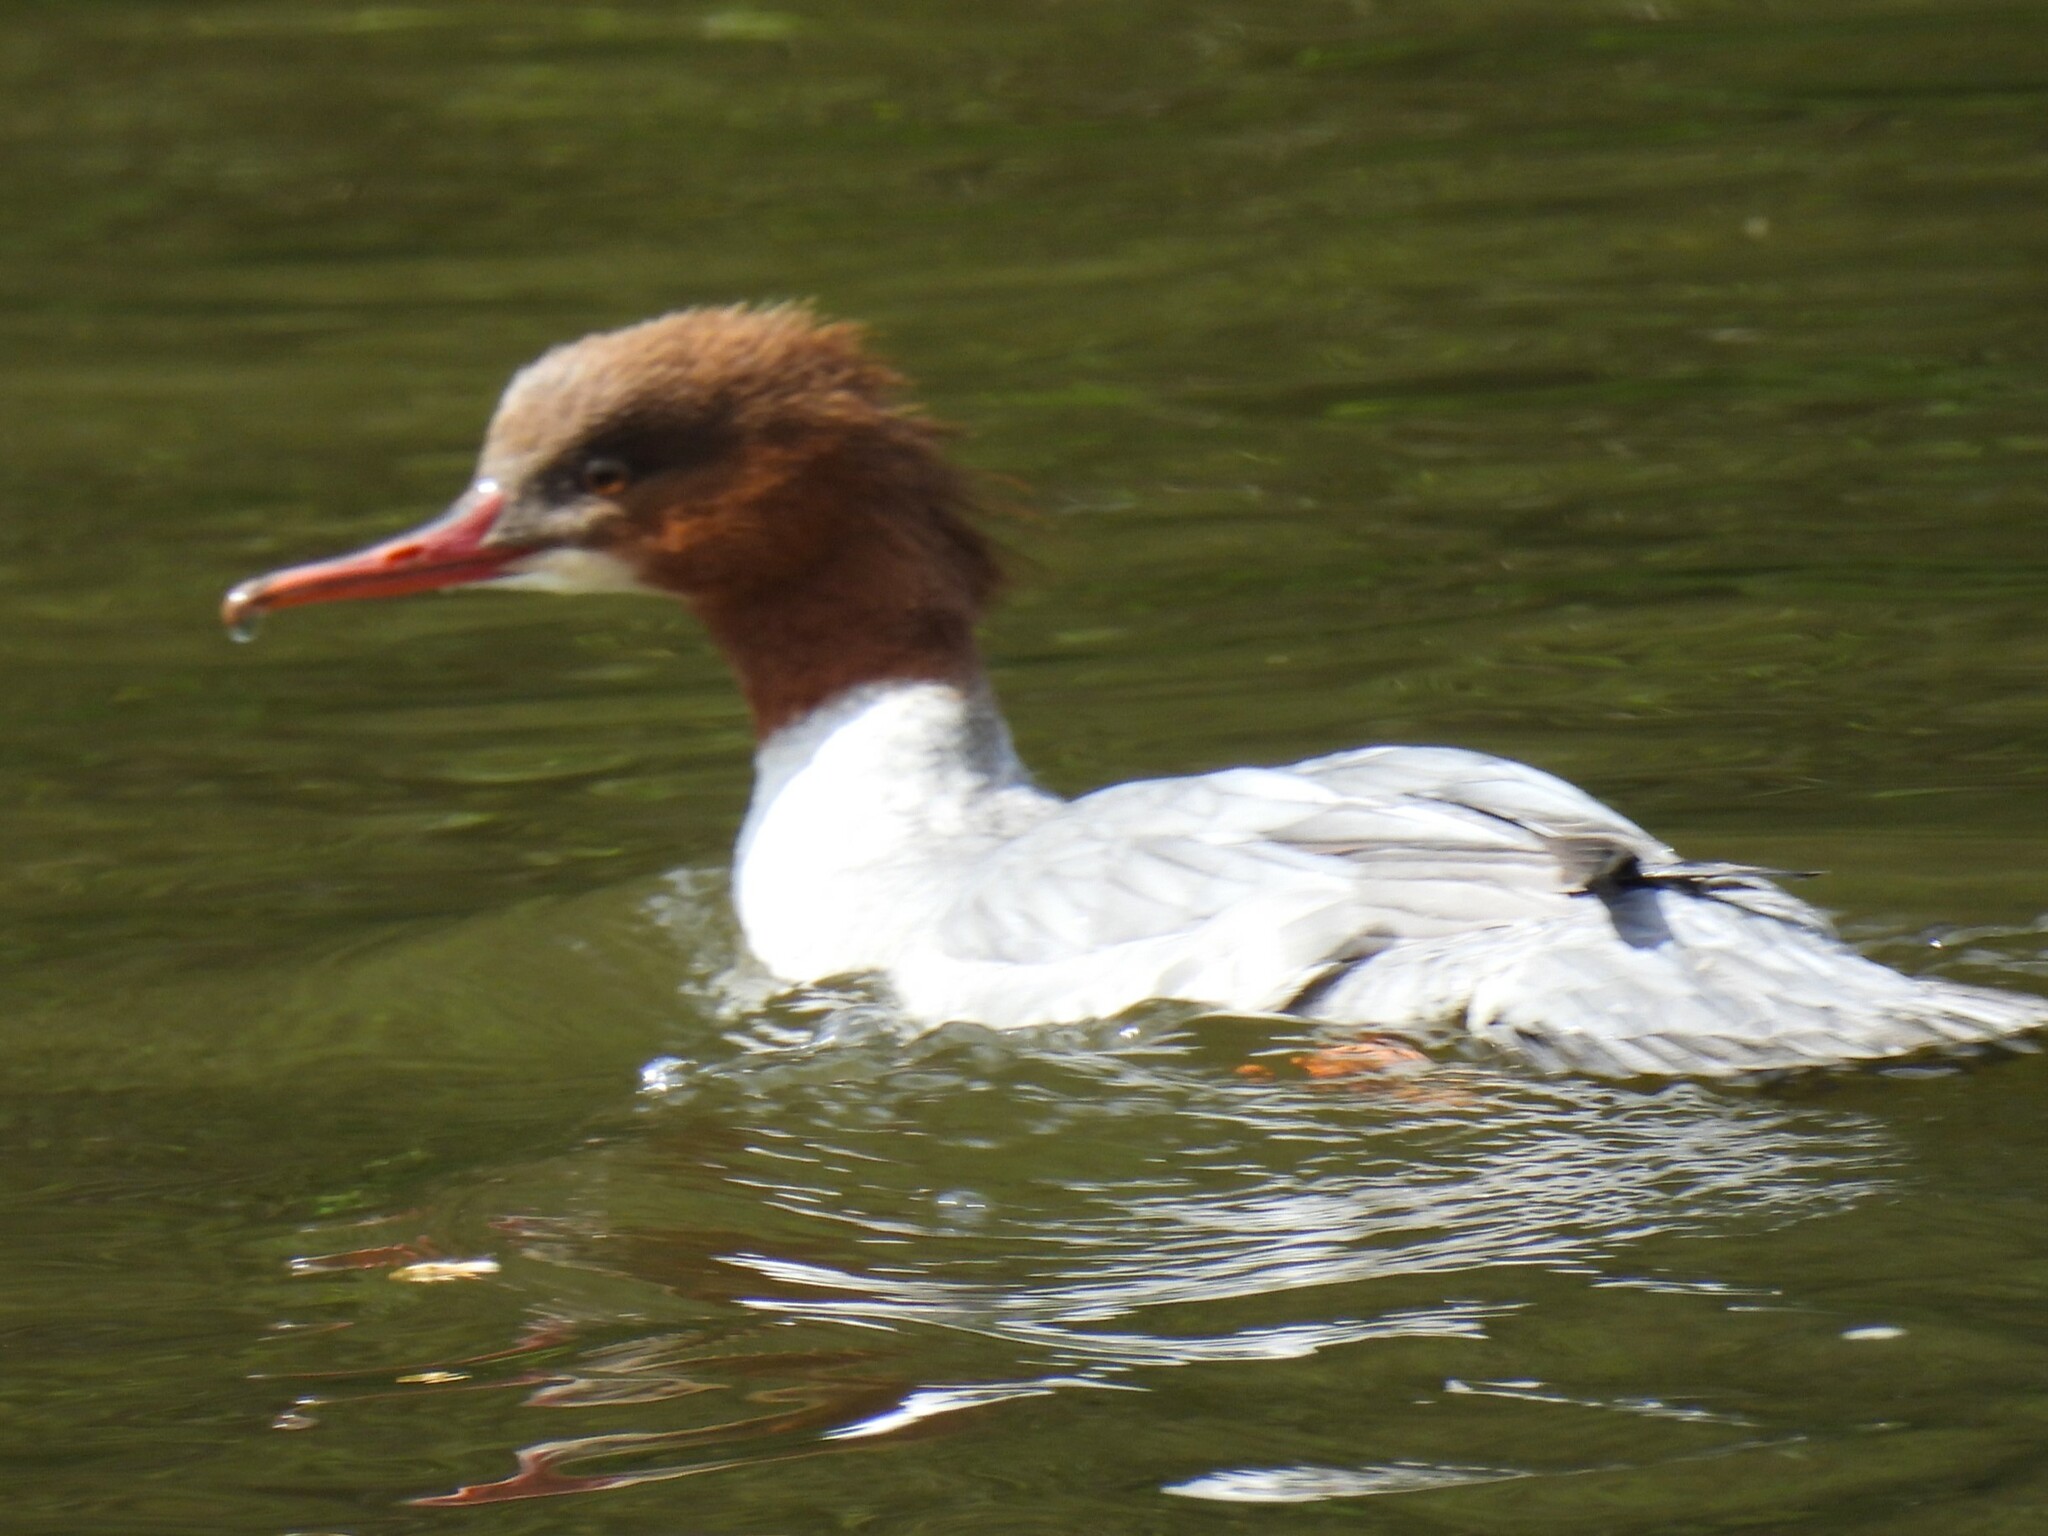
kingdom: Animalia
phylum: Chordata
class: Aves
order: Anseriformes
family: Anatidae
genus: Mergus
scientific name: Mergus merganser
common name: Common merganser
